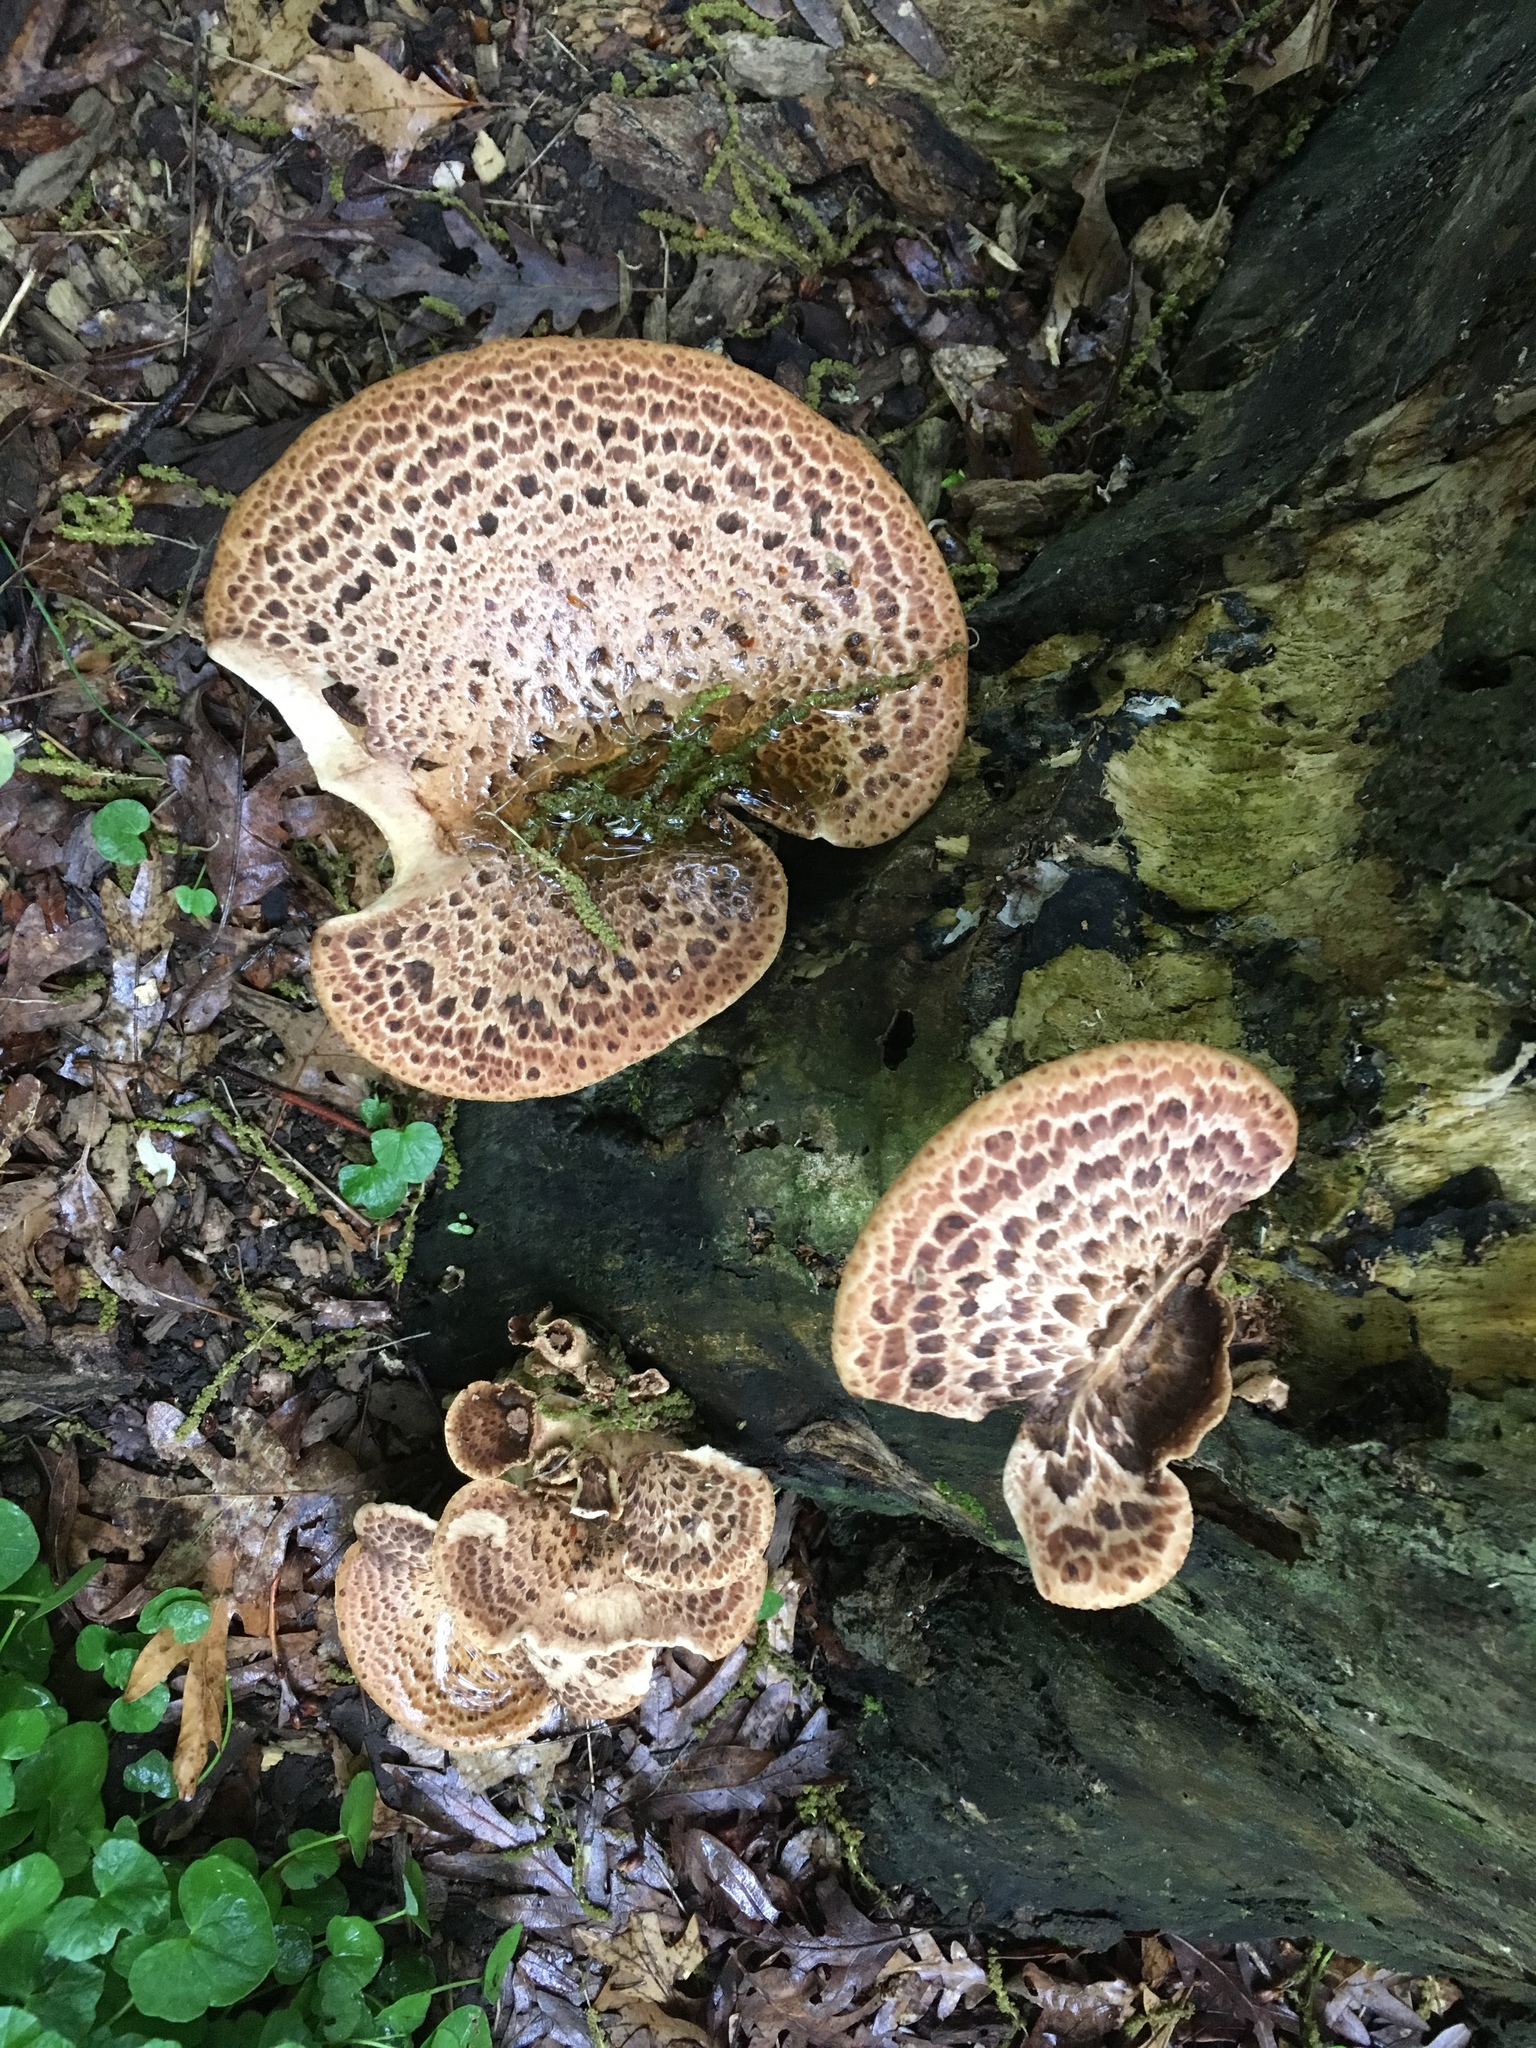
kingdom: Fungi
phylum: Basidiomycota
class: Agaricomycetes
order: Polyporales
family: Polyporaceae
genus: Cerioporus
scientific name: Cerioporus squamosus
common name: Dryad's saddle
